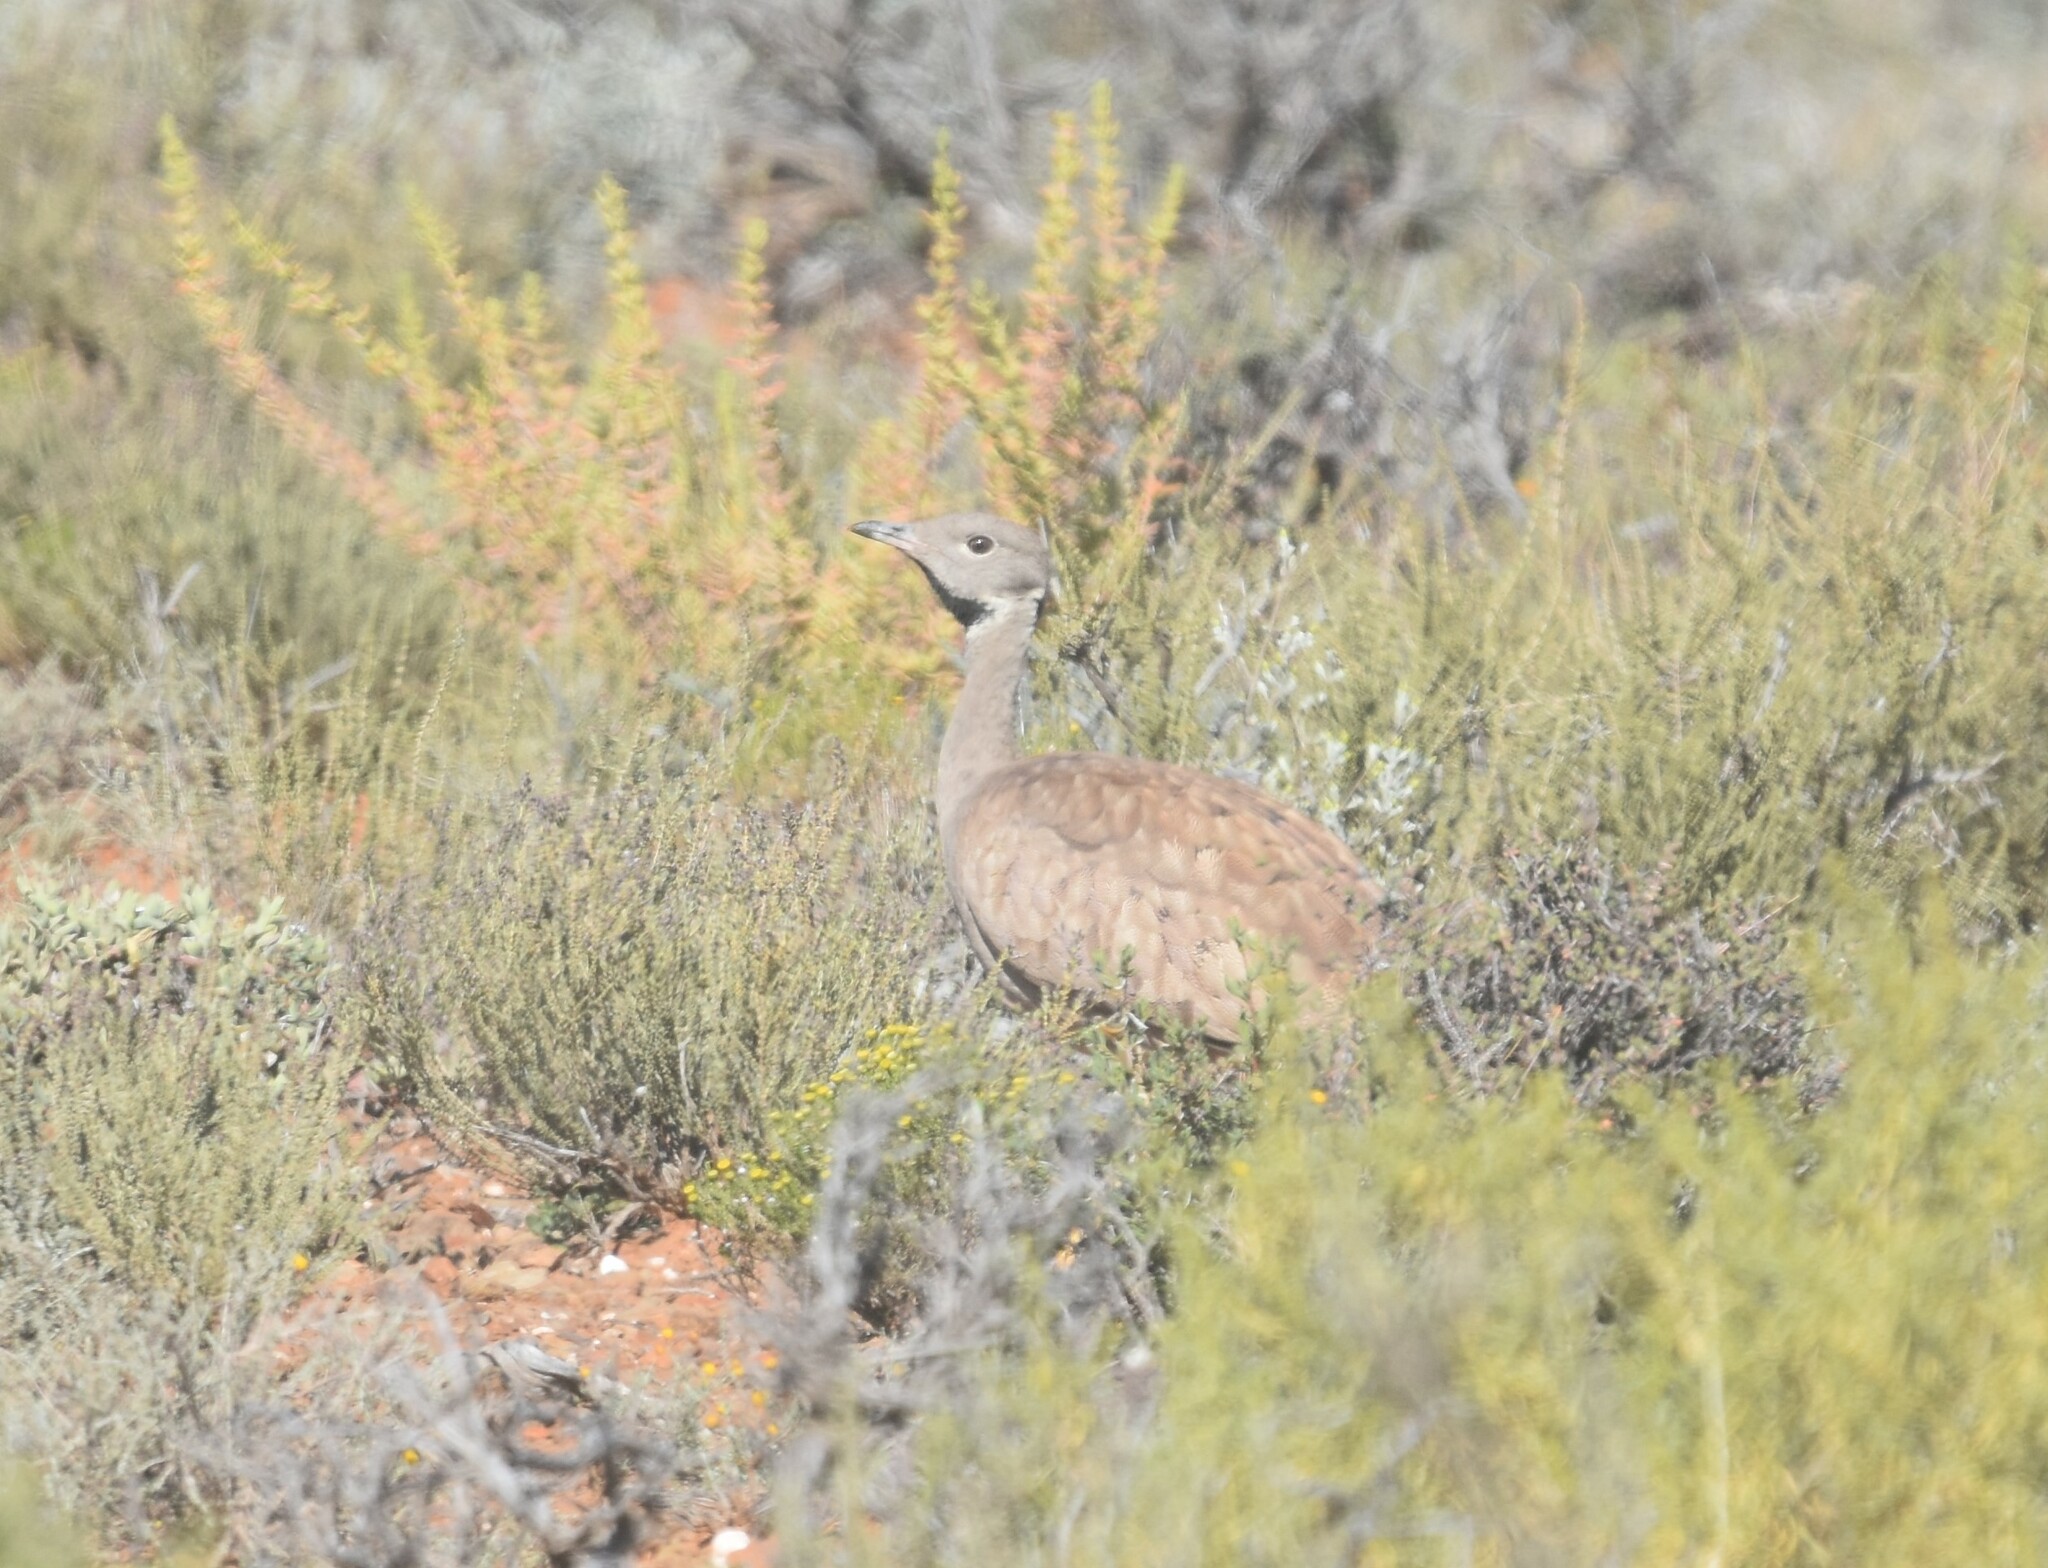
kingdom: Animalia
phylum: Chordata
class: Aves
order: Otidiformes
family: Otididae
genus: Eupodotis
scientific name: Eupodotis vigorsii
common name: Karoo korhaan
